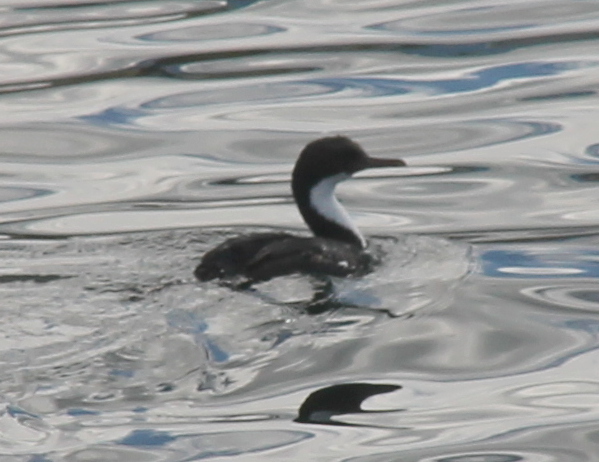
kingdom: Animalia
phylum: Chordata
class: Aves
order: Suliformes
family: Phalacrocoracidae
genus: Leucocarbo
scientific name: Leucocarbo atriceps
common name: Imperial shag
